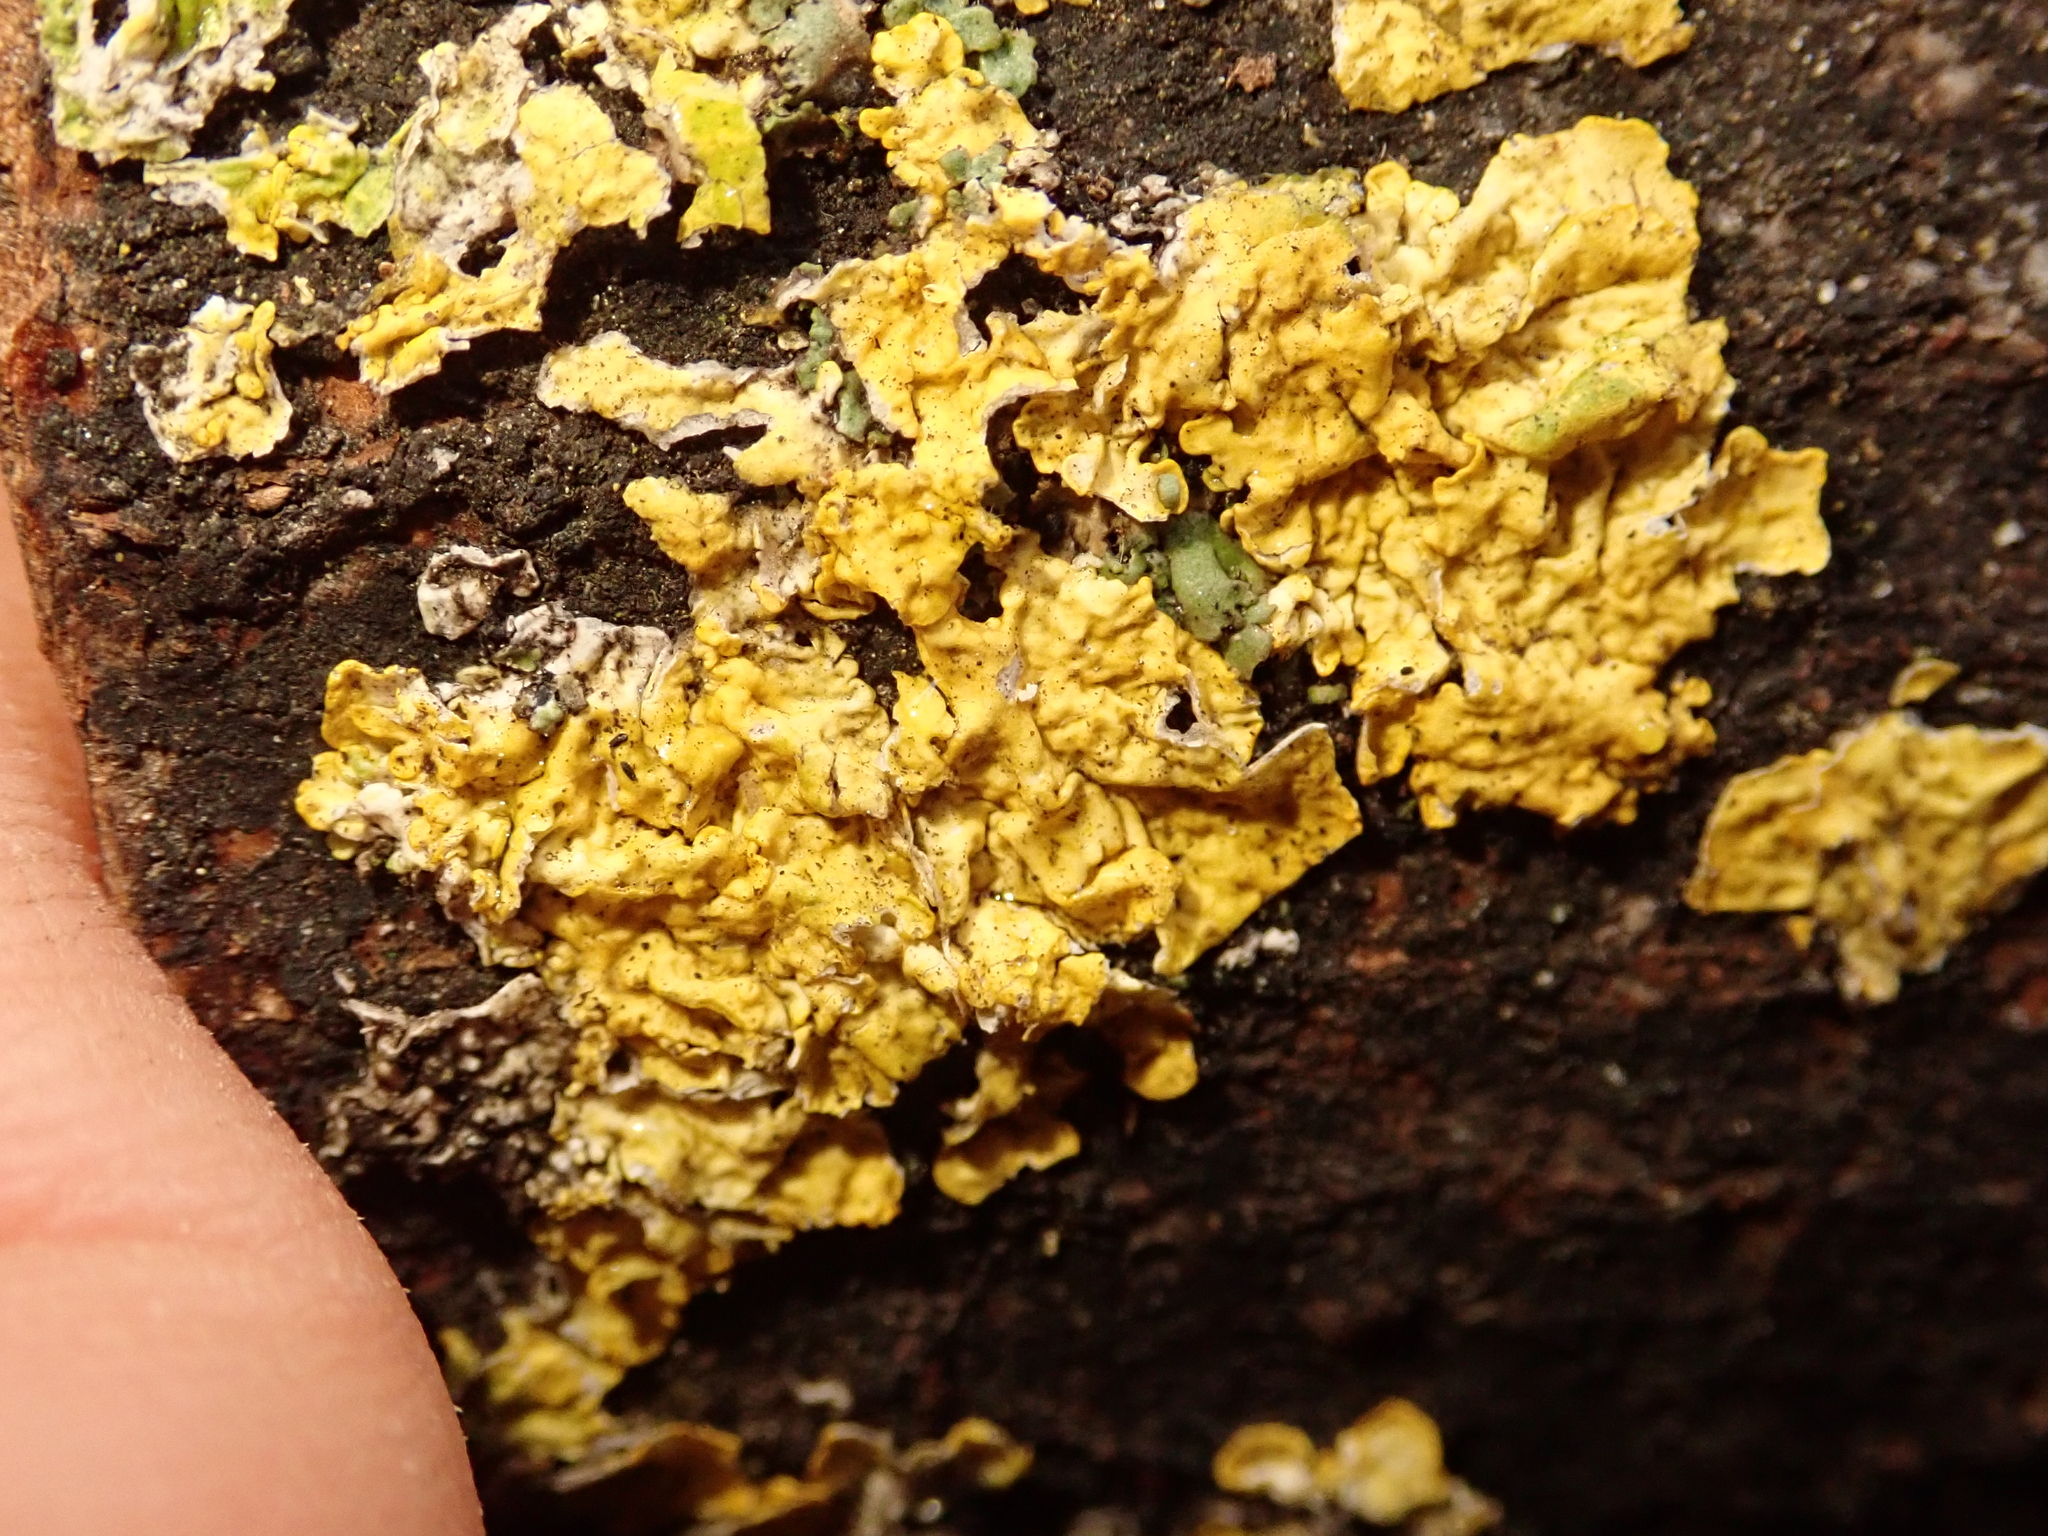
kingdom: Fungi
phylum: Ascomycota
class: Lecanoromycetes
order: Teloschistales
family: Teloschistaceae
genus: Xanthoria
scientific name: Xanthoria parietina
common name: Common orange lichen
